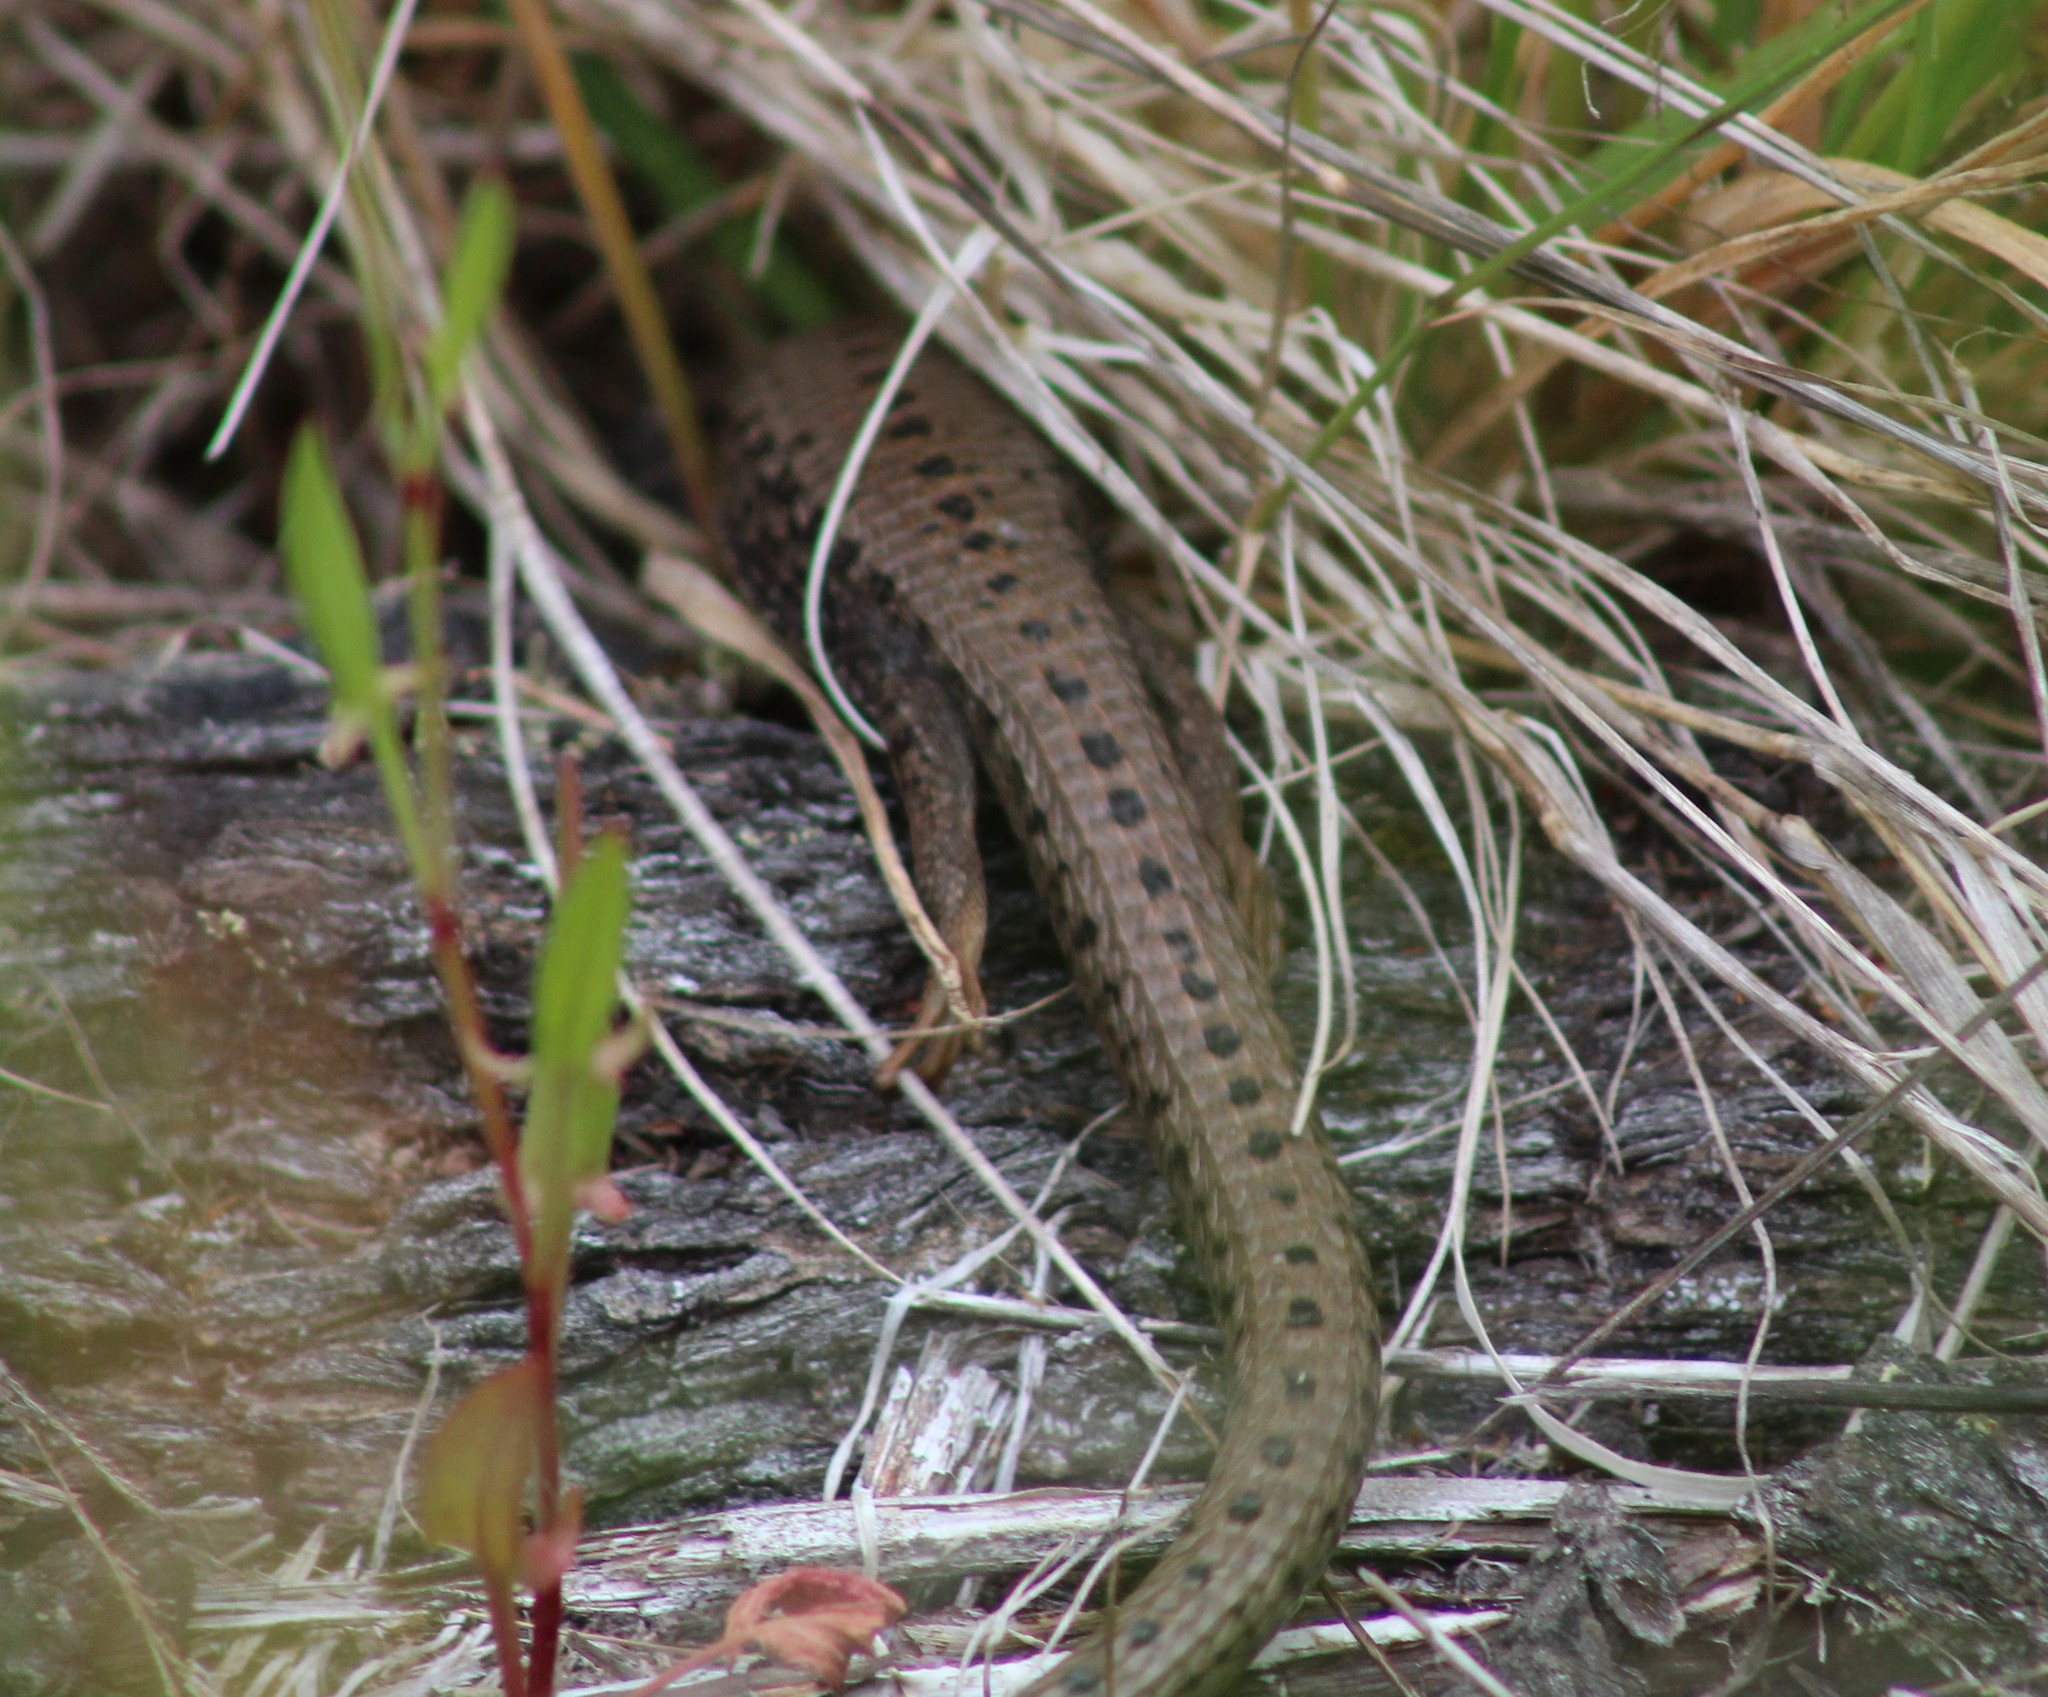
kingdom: Animalia
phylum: Chordata
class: Squamata
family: Anguidae
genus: Elgaria
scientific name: Elgaria coerulea
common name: Northern alligator lizard
